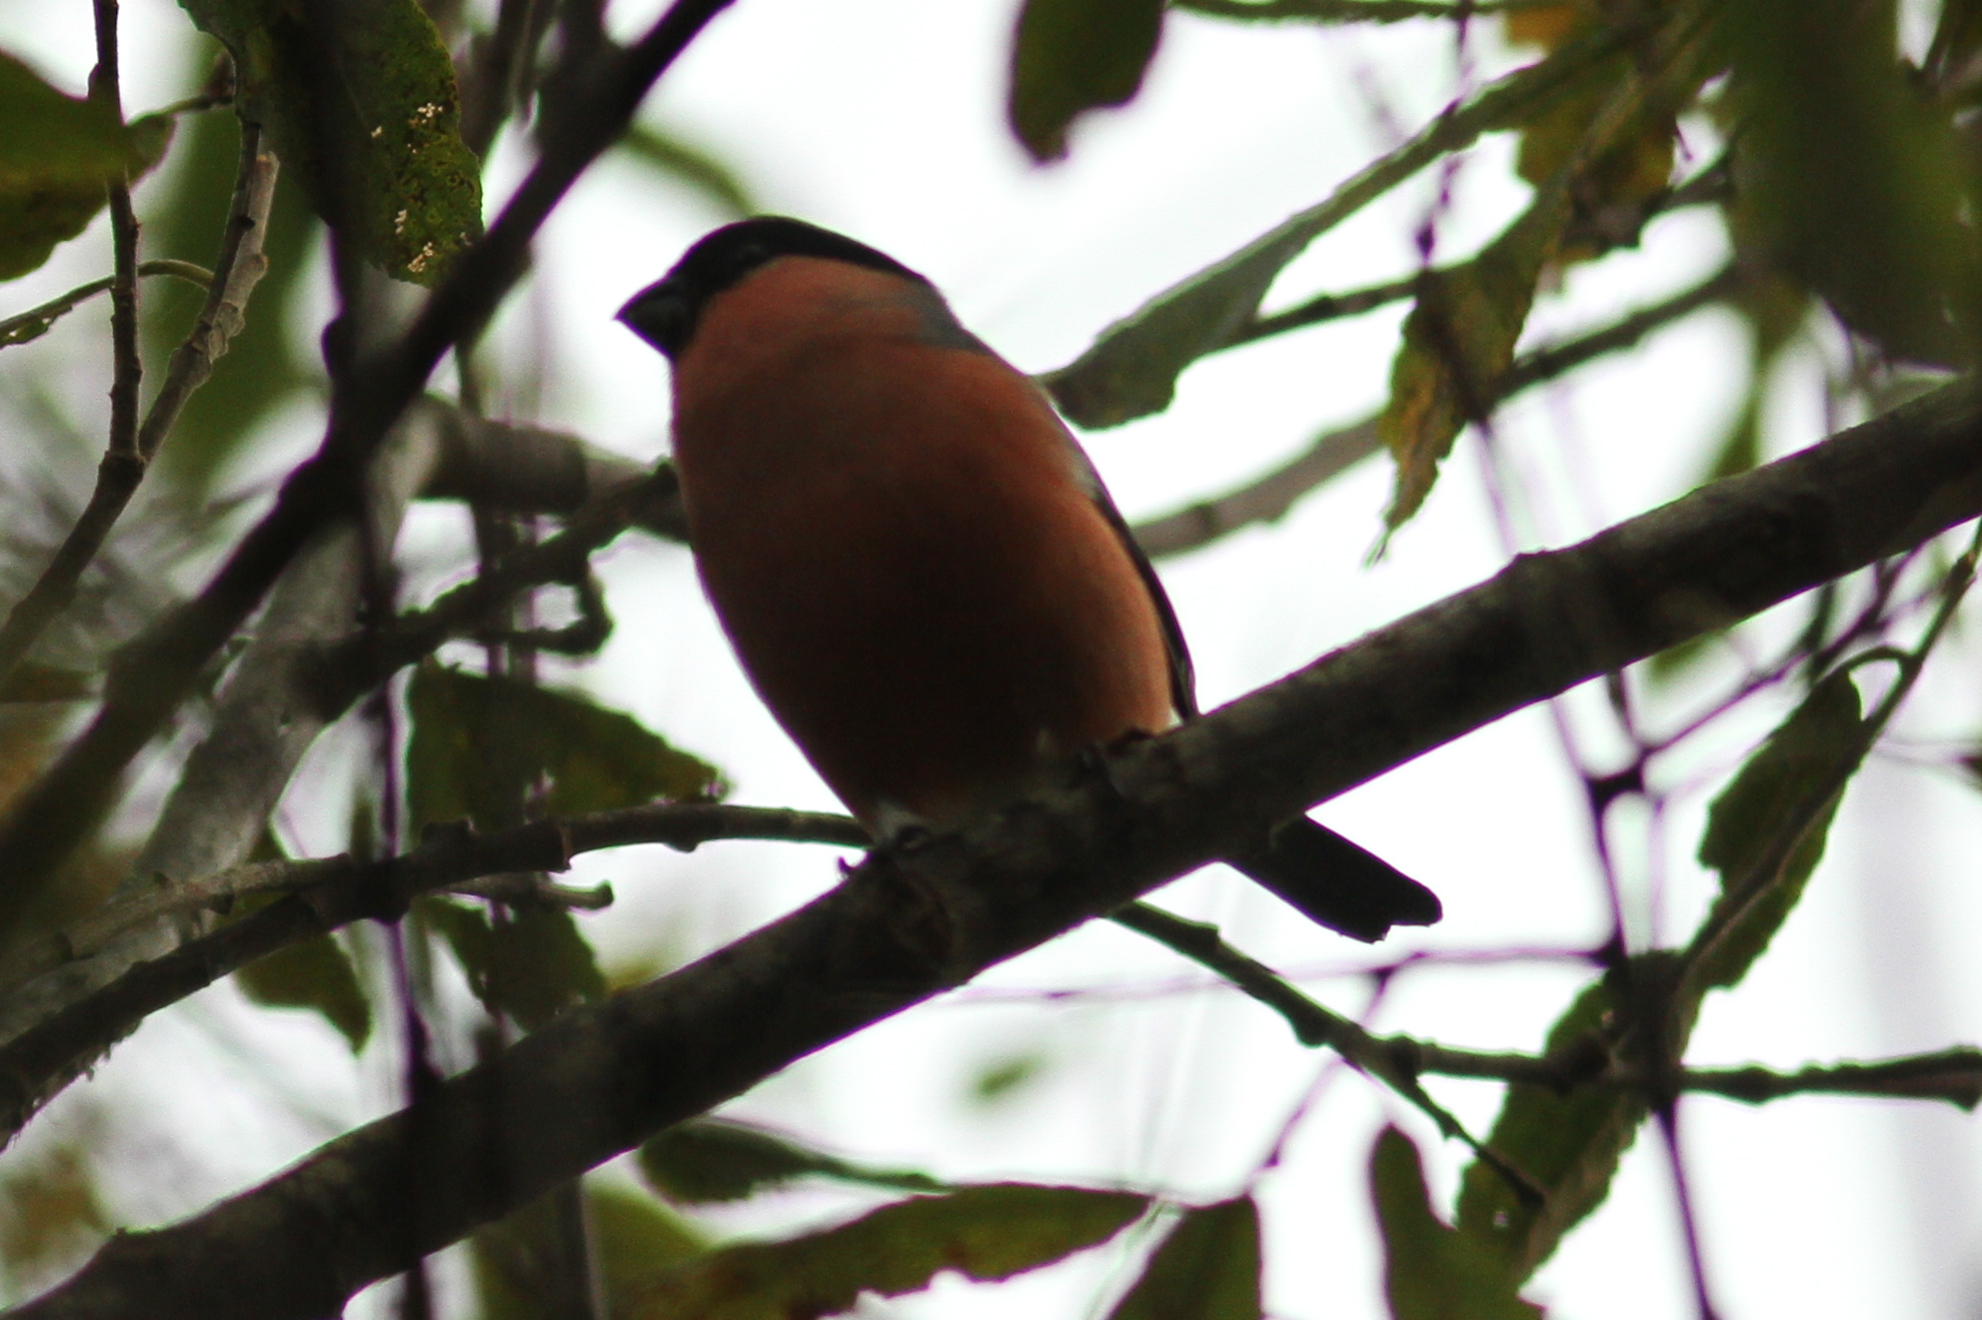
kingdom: Animalia
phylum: Chordata
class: Aves
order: Passeriformes
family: Fringillidae
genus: Pyrrhula
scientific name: Pyrrhula pyrrhula
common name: Eurasian bullfinch
